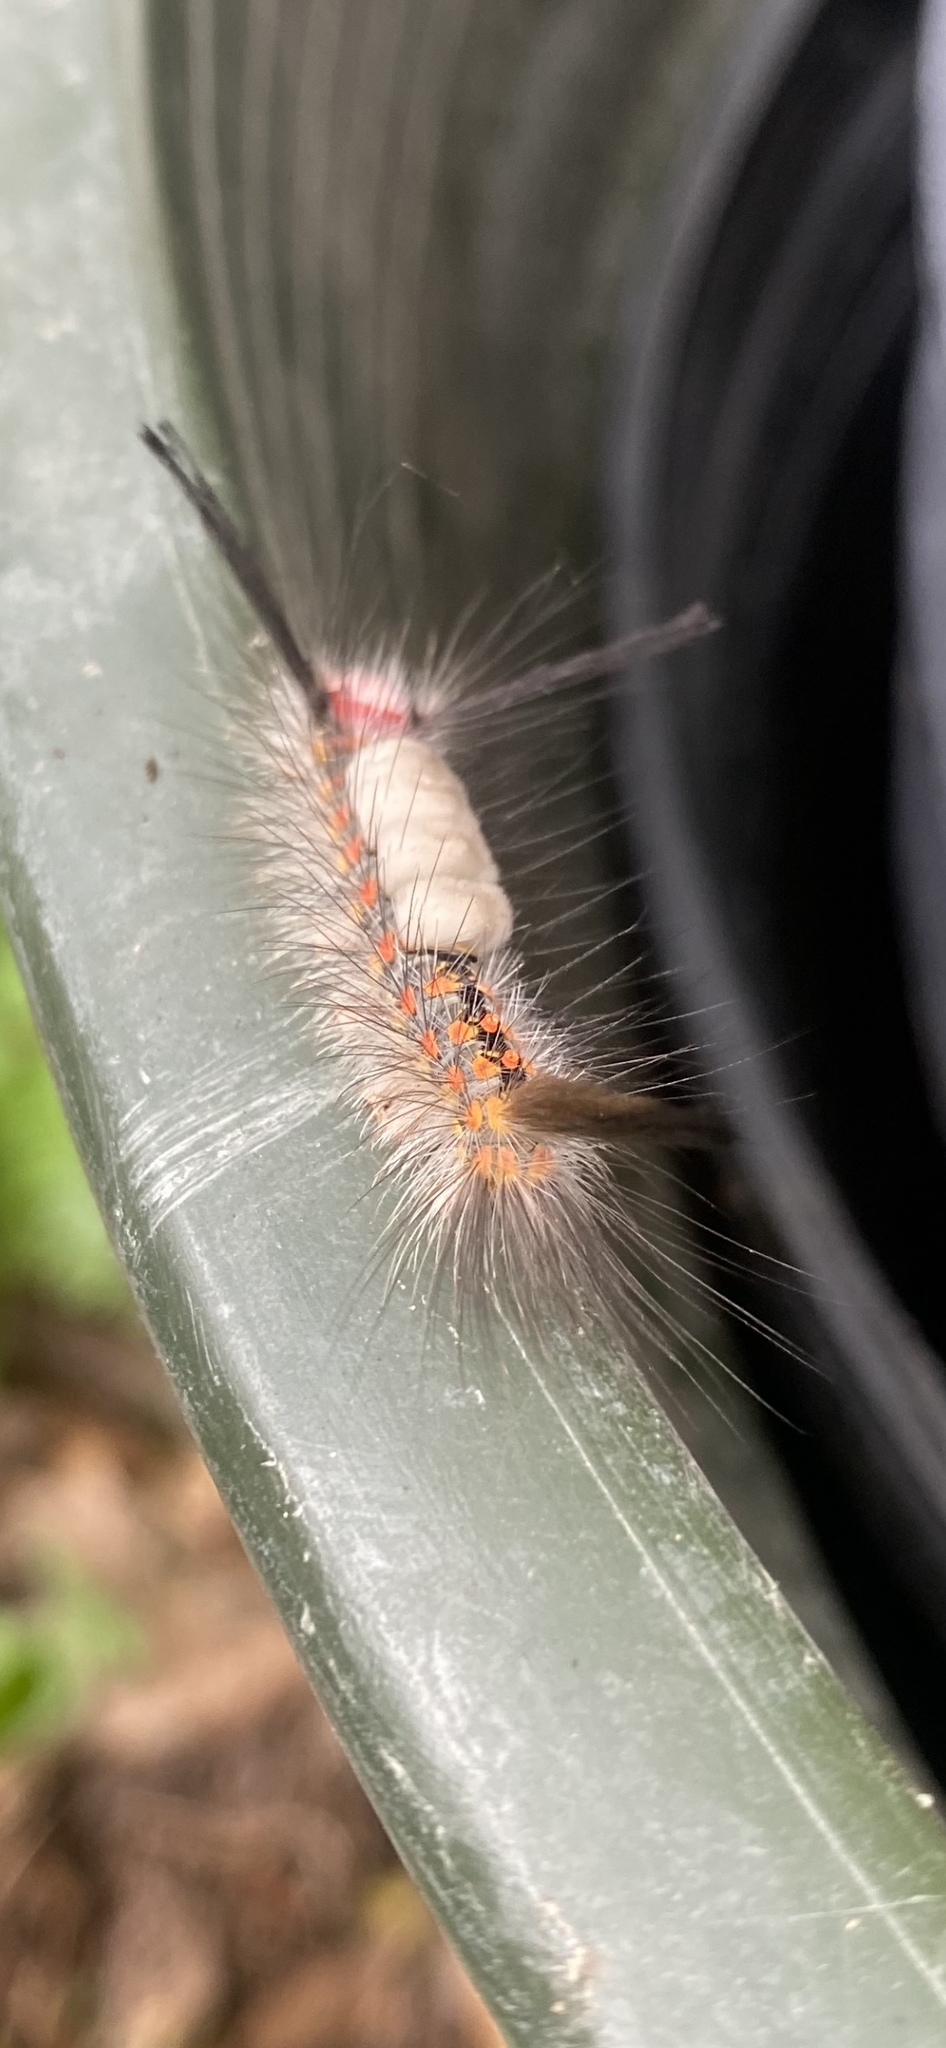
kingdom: Animalia
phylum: Arthropoda
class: Insecta
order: Lepidoptera
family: Erebidae
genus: Orgyia
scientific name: Orgyia detrita
